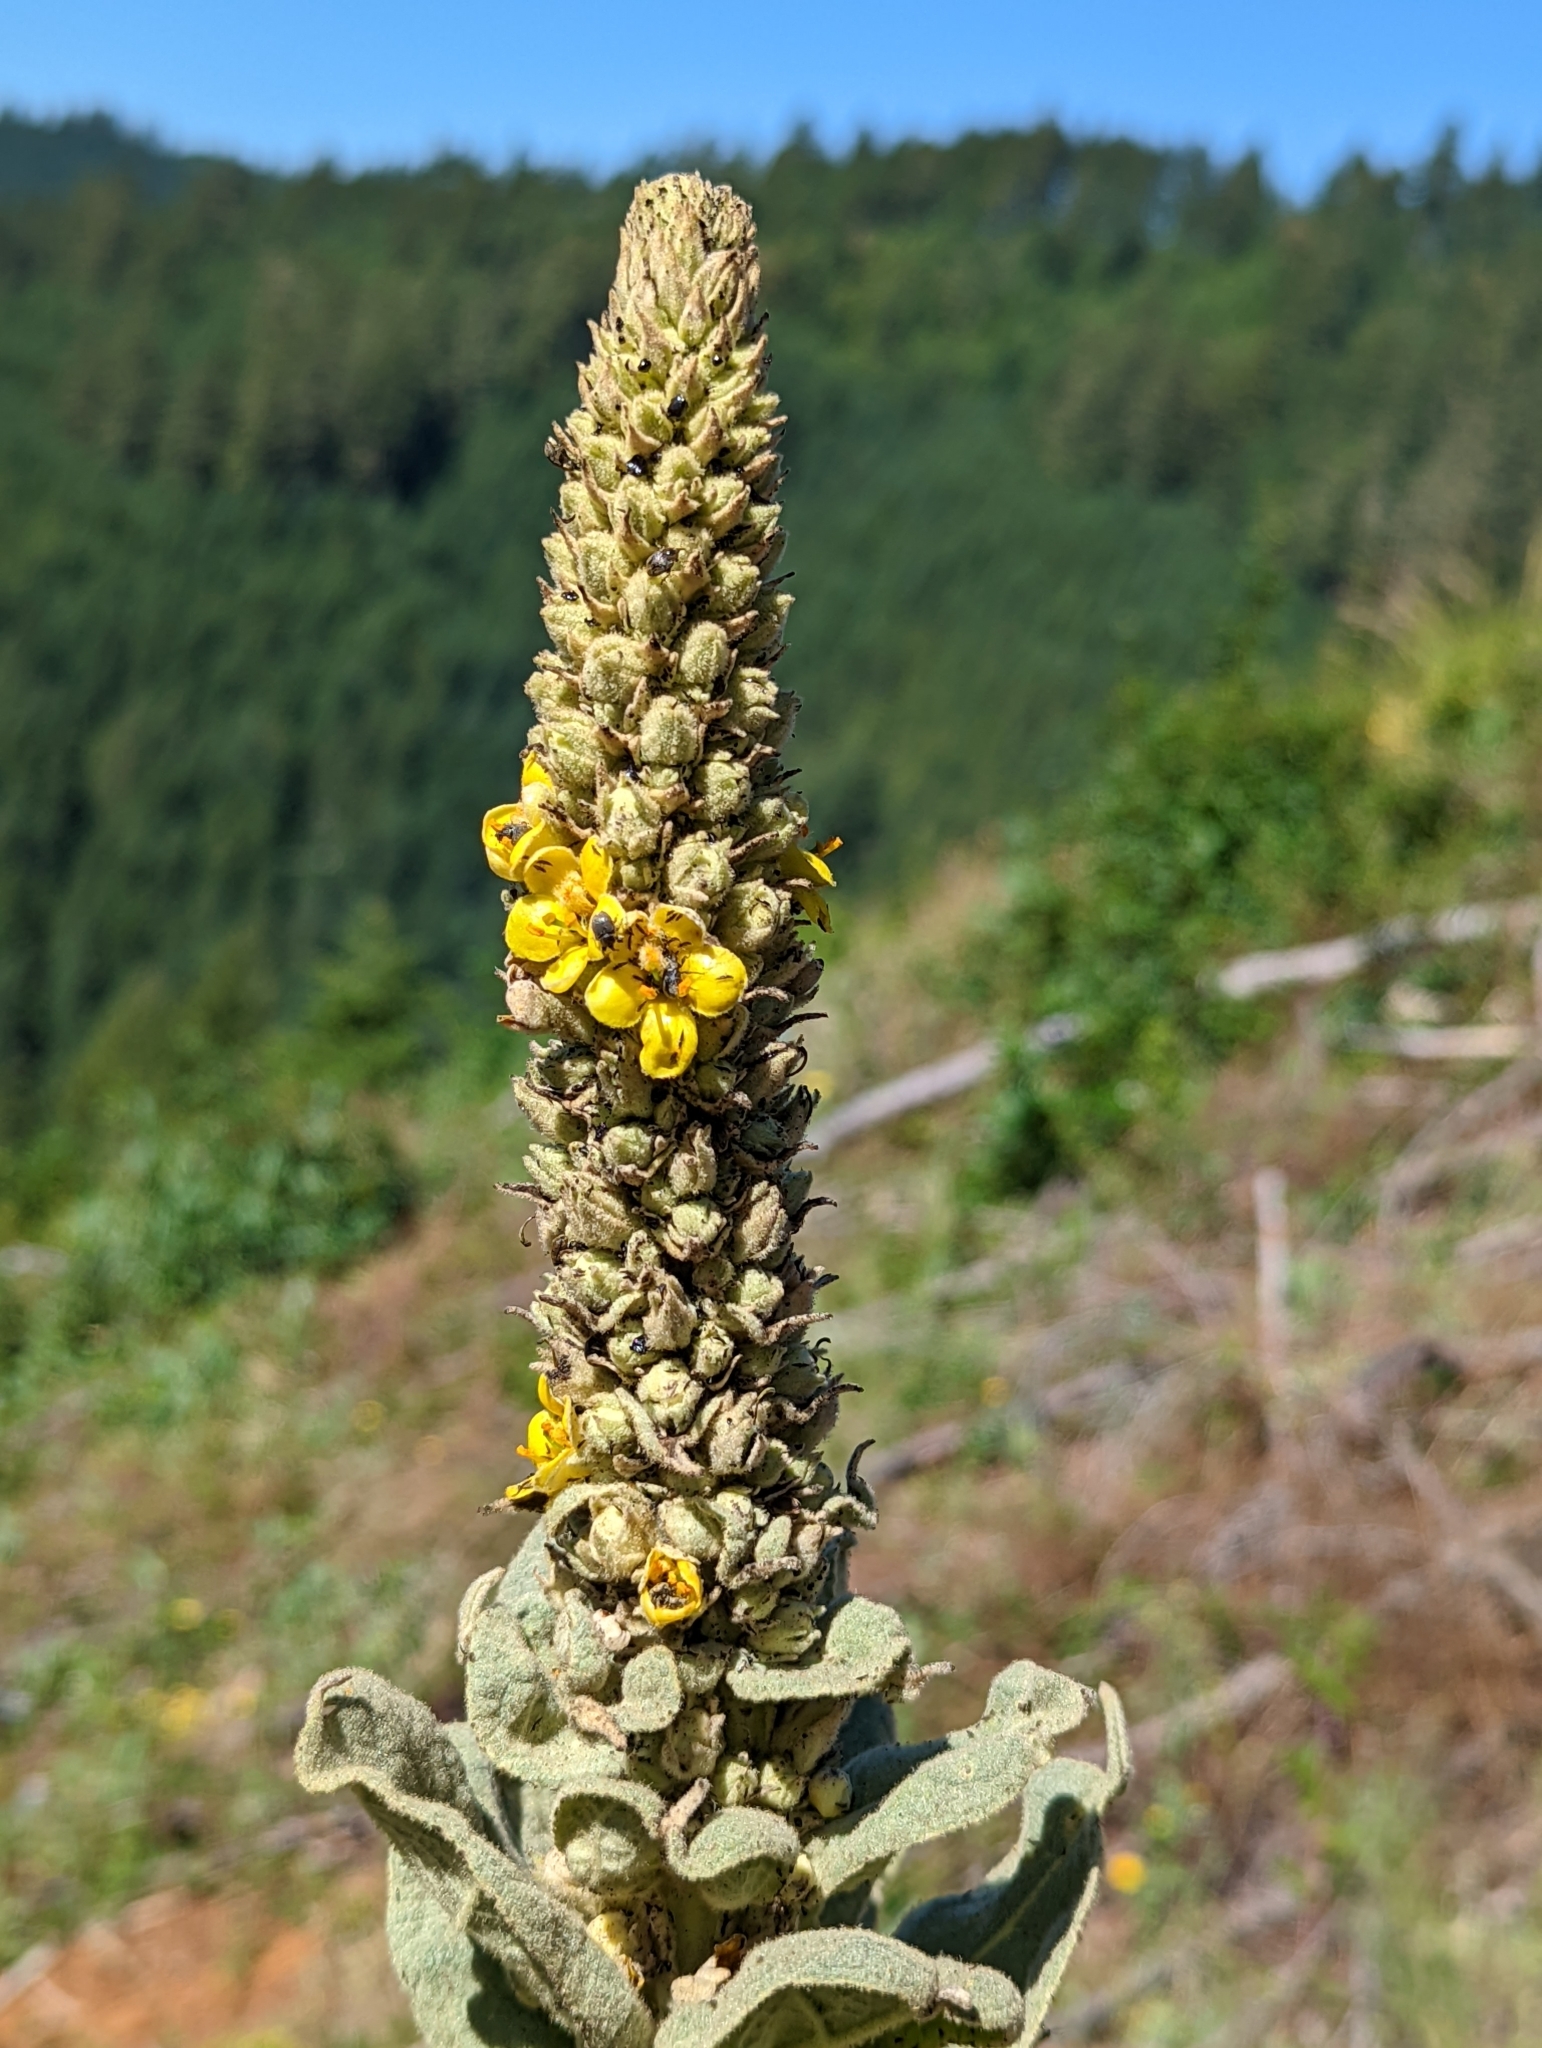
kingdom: Plantae
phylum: Tracheophyta
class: Magnoliopsida
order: Lamiales
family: Scrophulariaceae
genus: Verbascum
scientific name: Verbascum thapsus
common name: Common mullein
